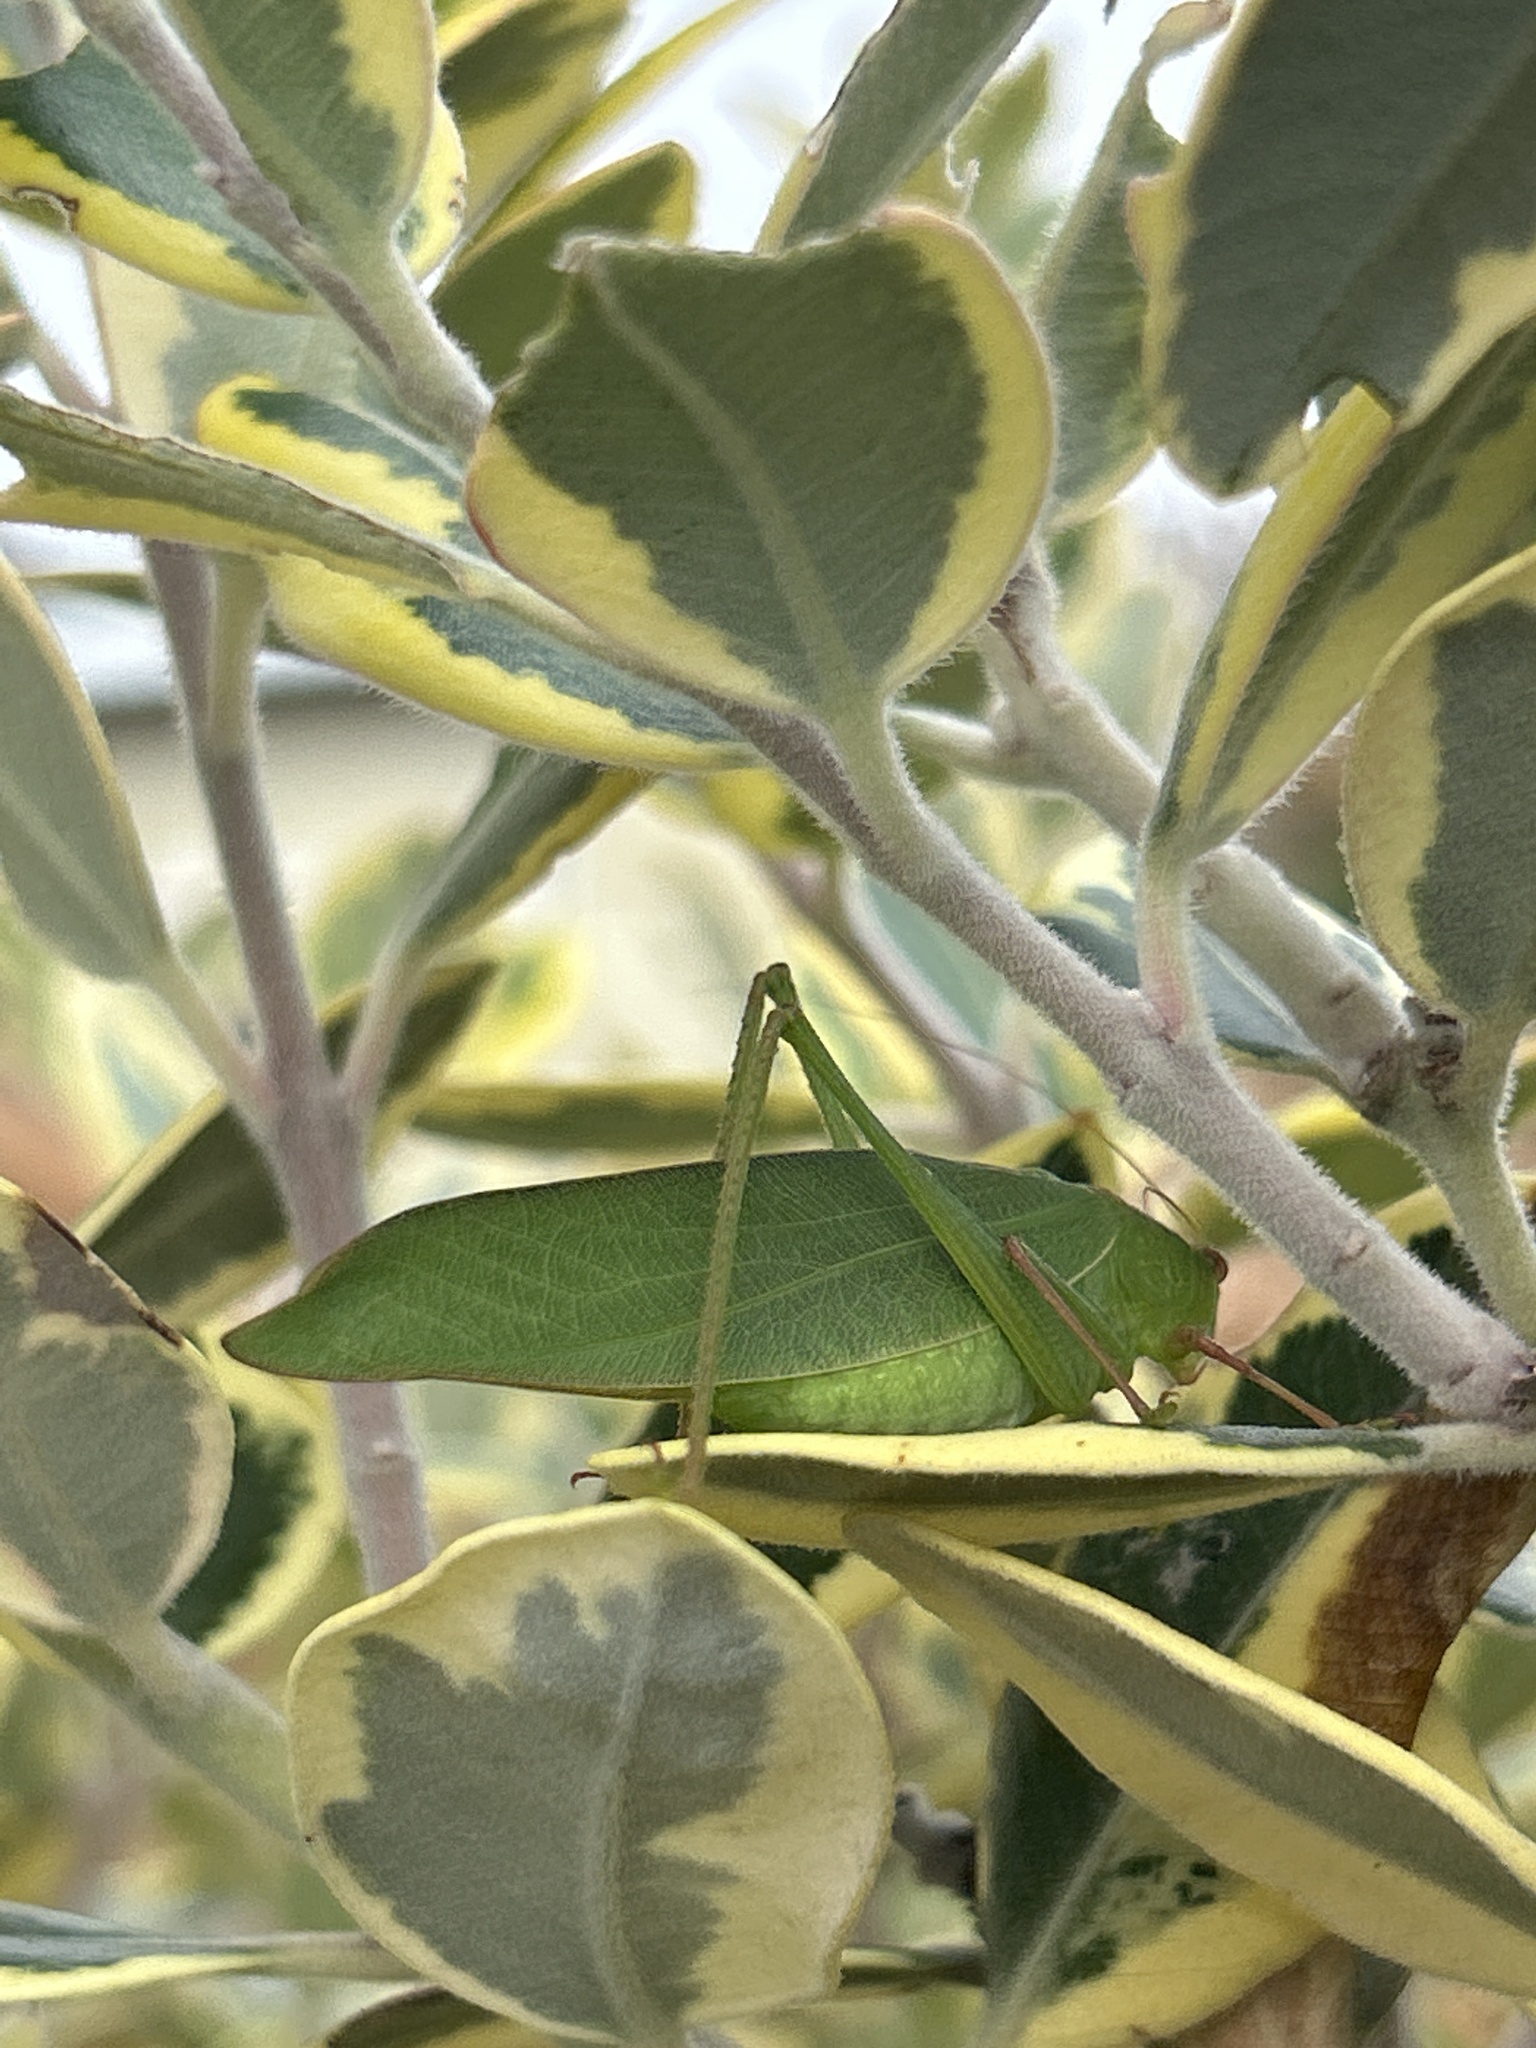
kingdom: Animalia
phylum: Arthropoda
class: Insecta
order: Orthoptera
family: Tettigoniidae
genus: Caedicia
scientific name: Caedicia simplex
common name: Common garden katydid
